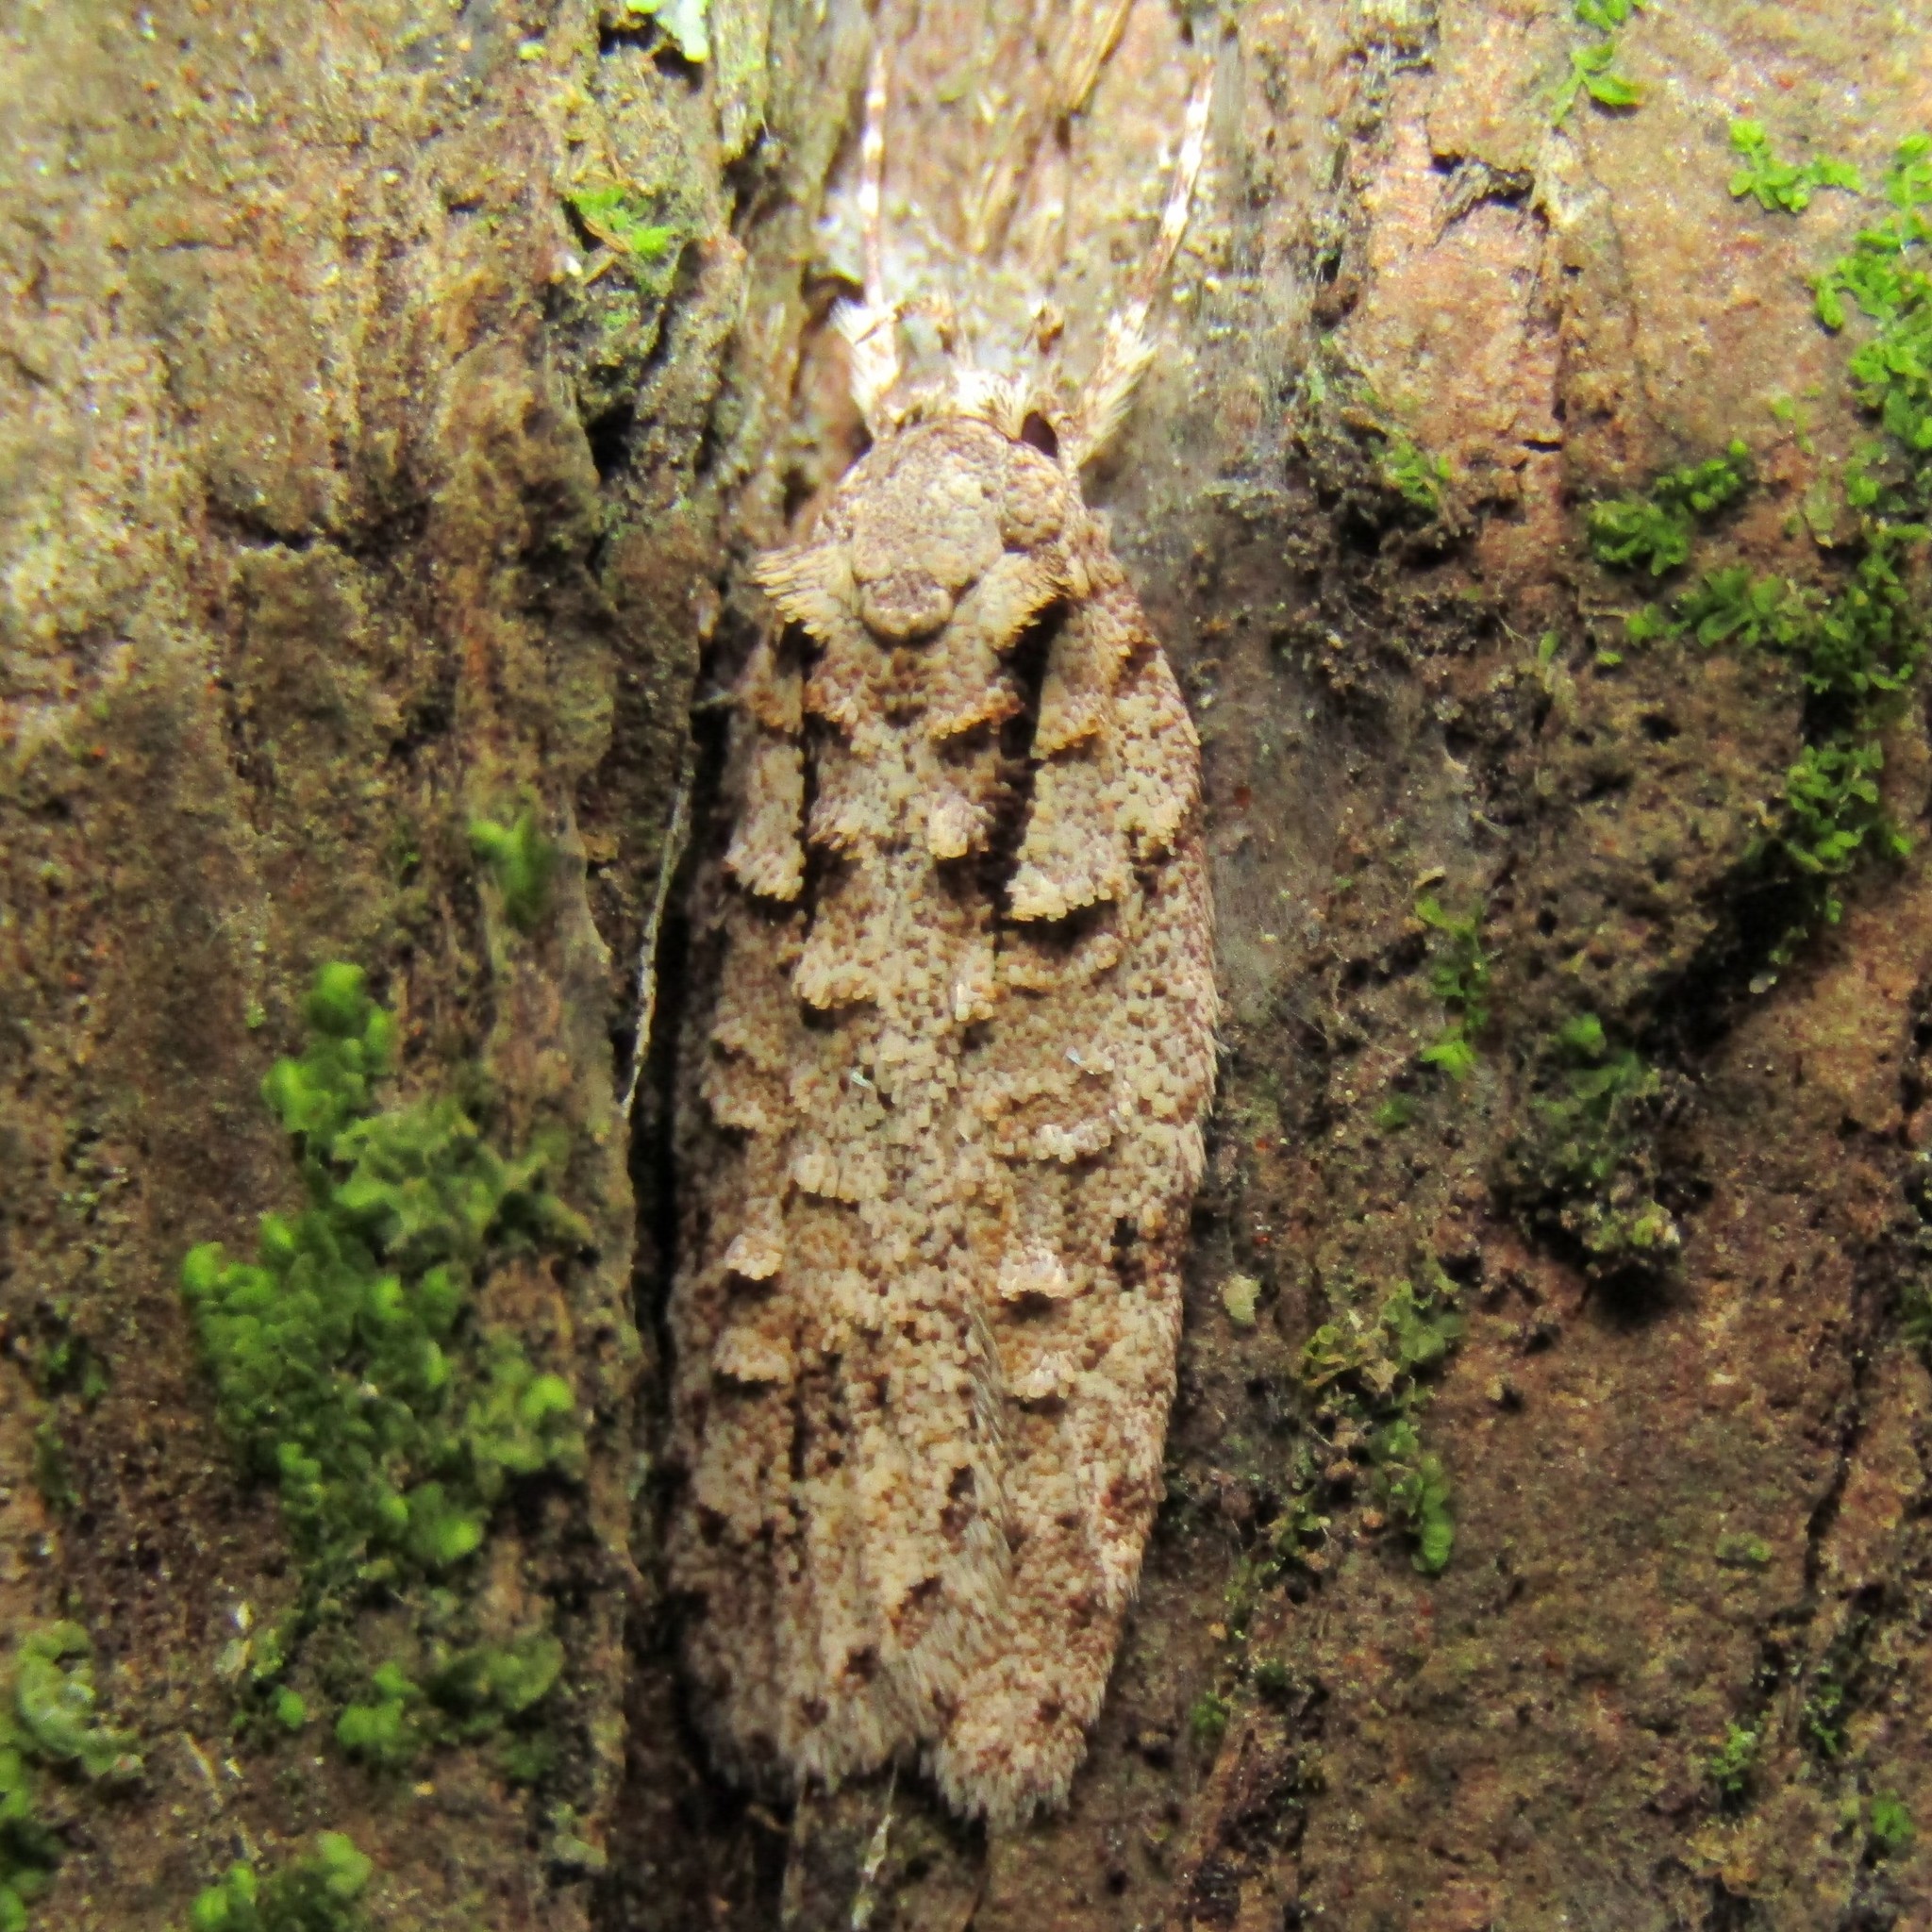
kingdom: Animalia
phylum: Arthropoda
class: Insecta
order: Lepidoptera
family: Oecophoridae
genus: Izatha
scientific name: Izatha attactella
